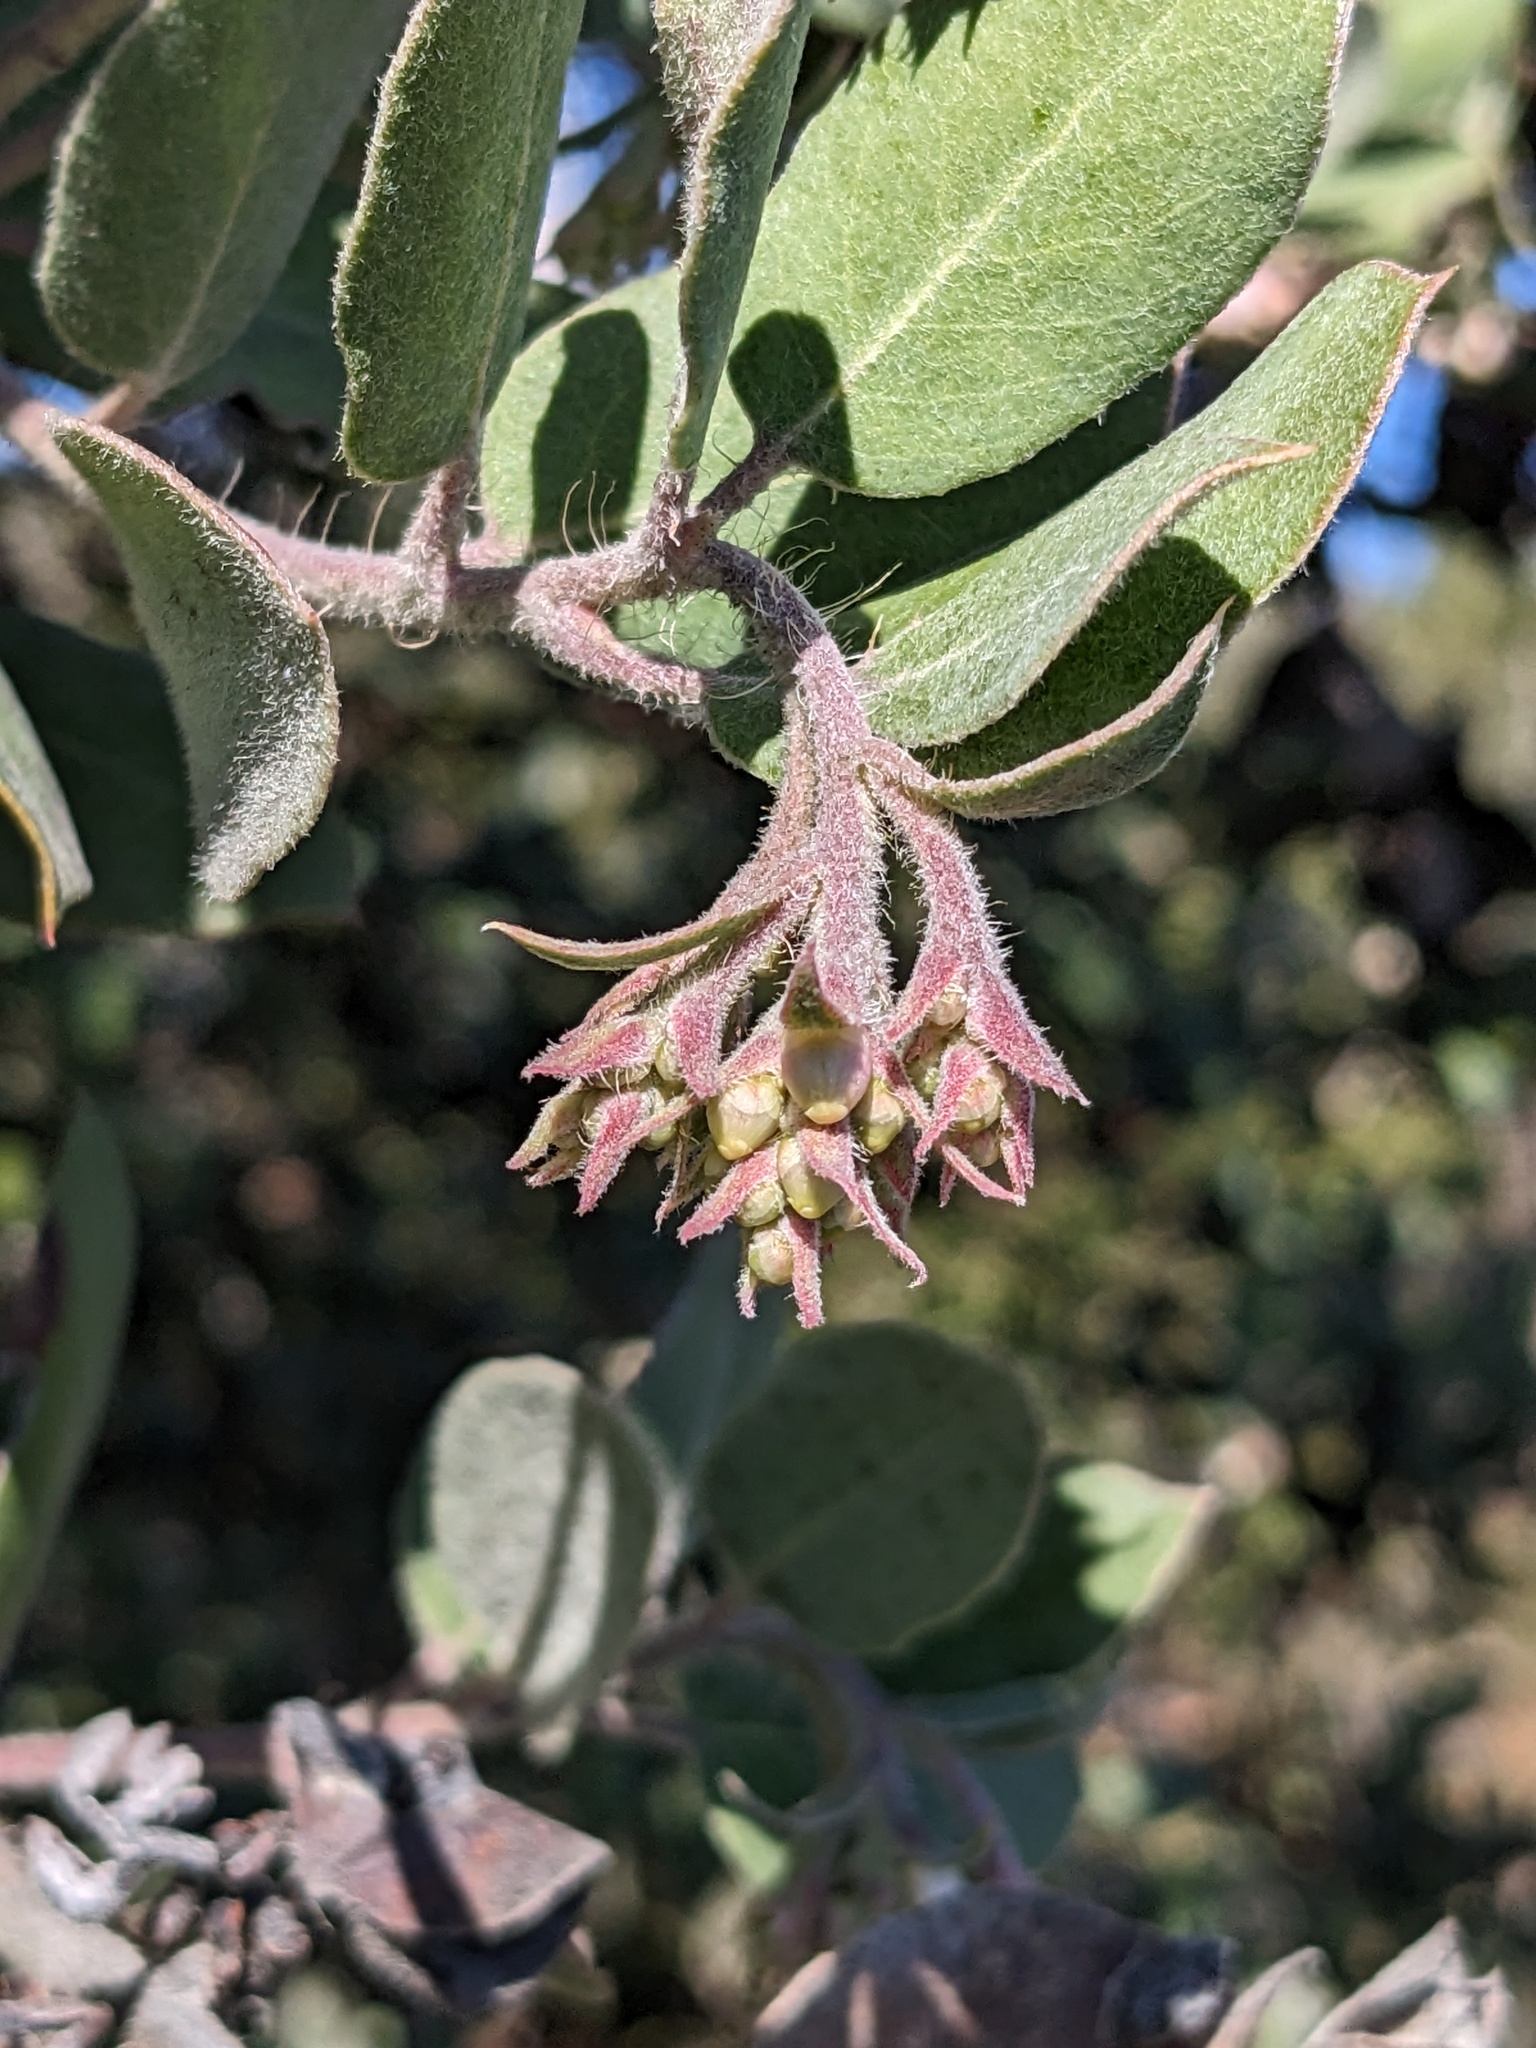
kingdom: Plantae
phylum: Tracheophyta
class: Magnoliopsida
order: Ericales
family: Ericaceae
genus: Arctostaphylos
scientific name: Arctostaphylos crustacea
